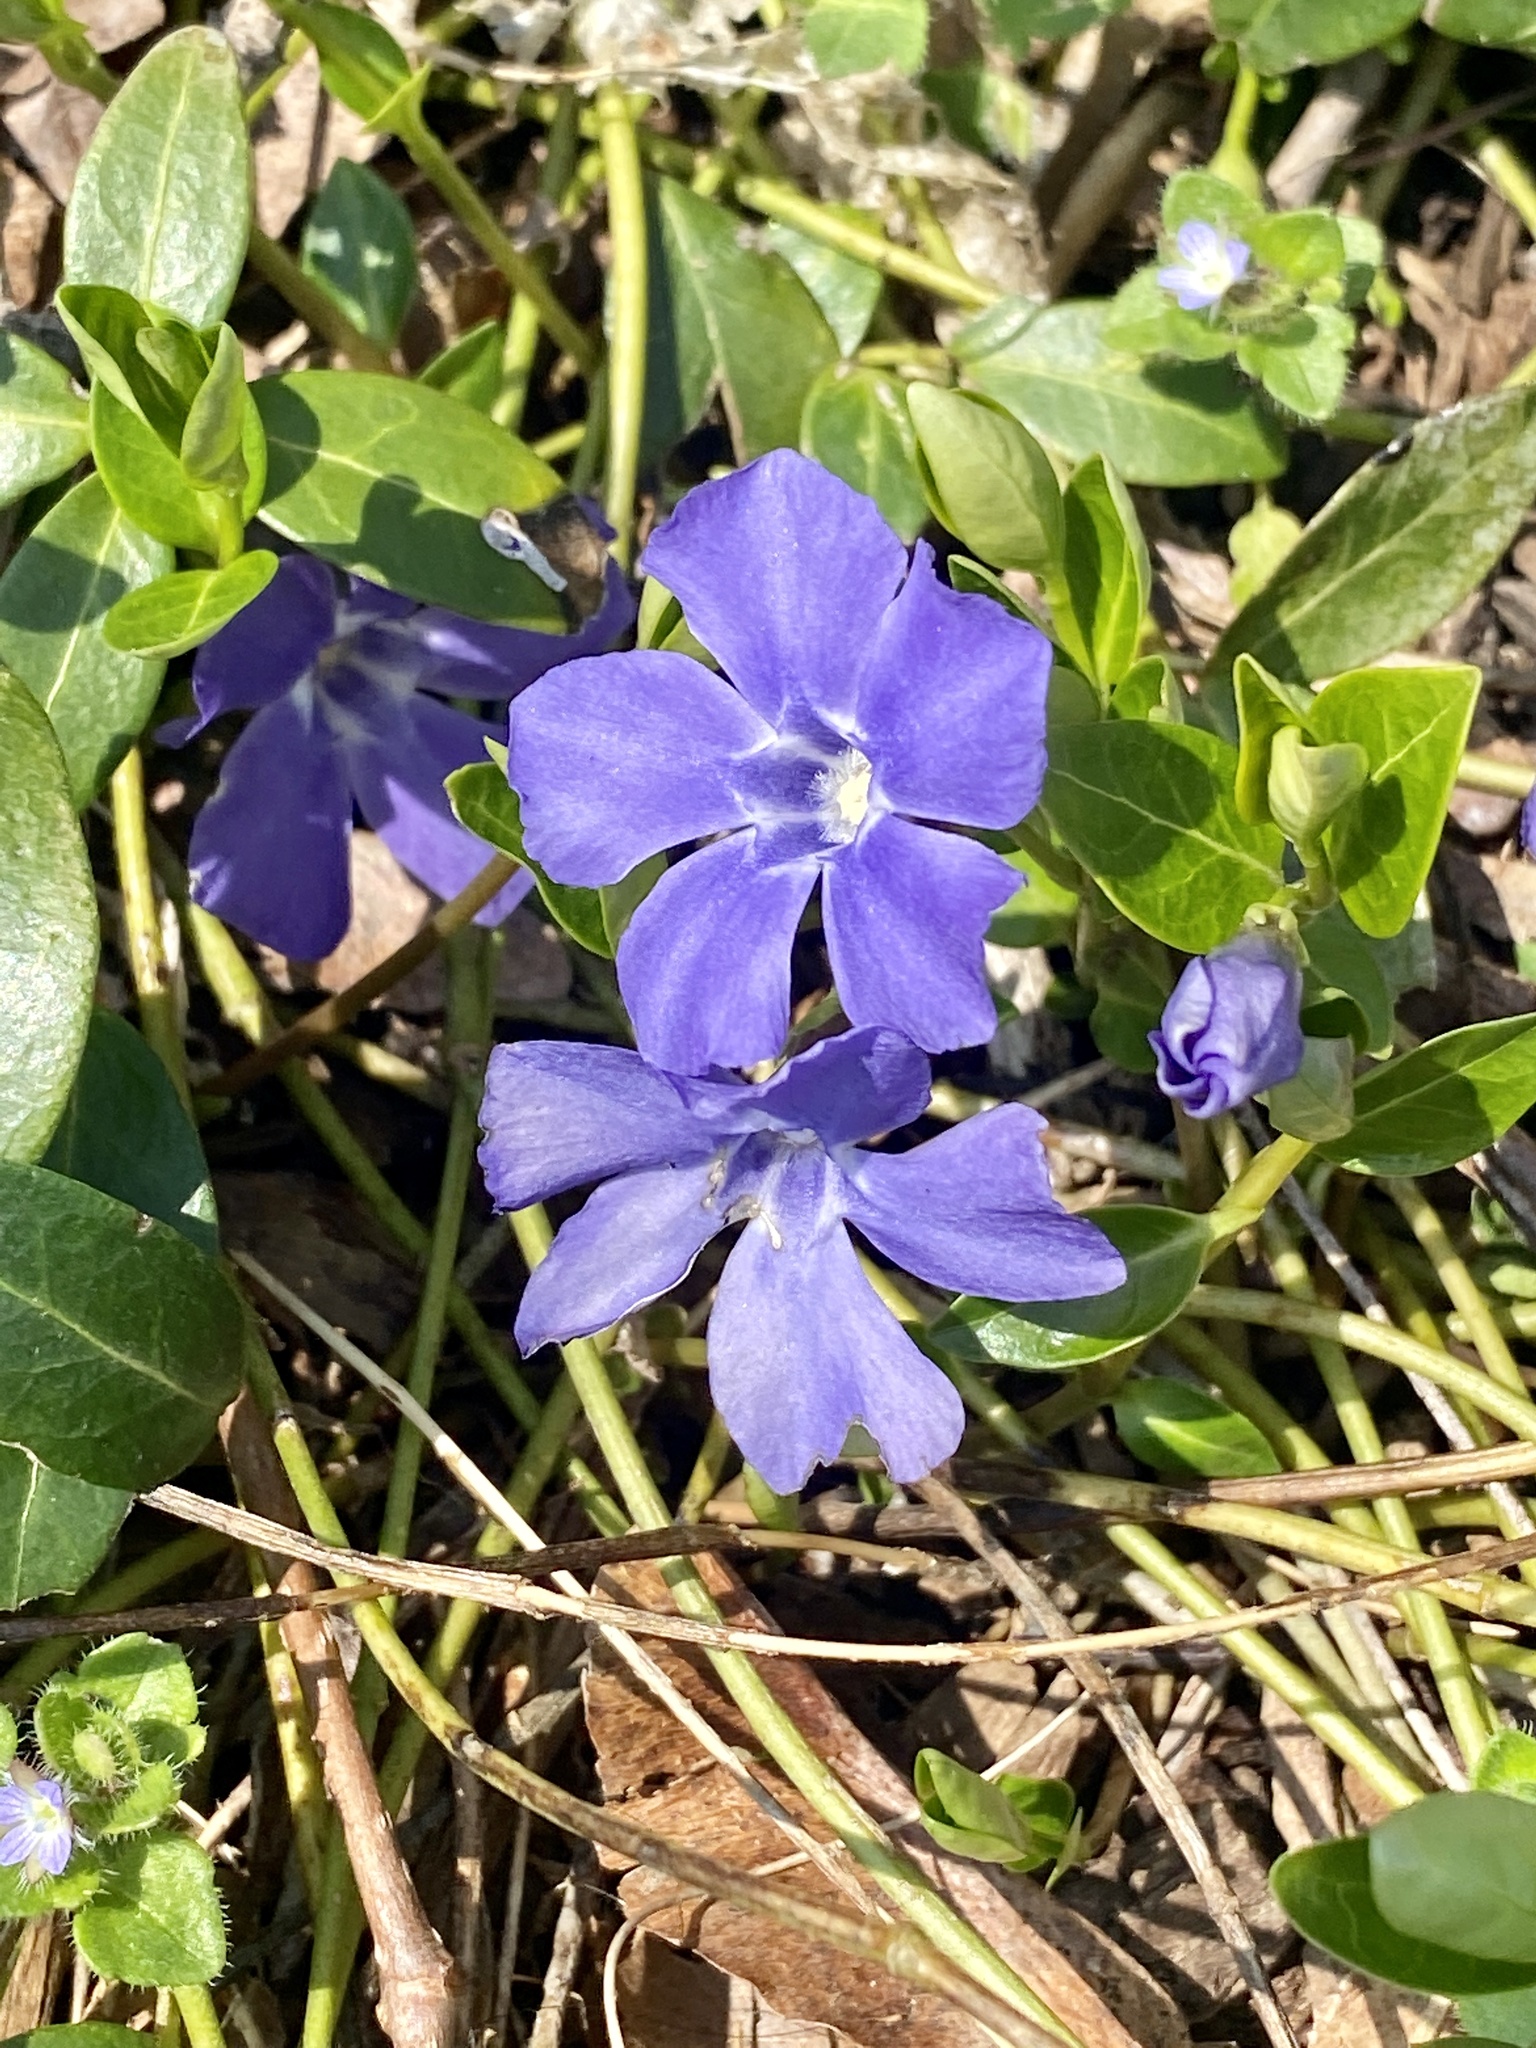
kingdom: Plantae
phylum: Tracheophyta
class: Magnoliopsida
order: Gentianales
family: Apocynaceae
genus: Vinca
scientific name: Vinca minor
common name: Lesser periwinkle
